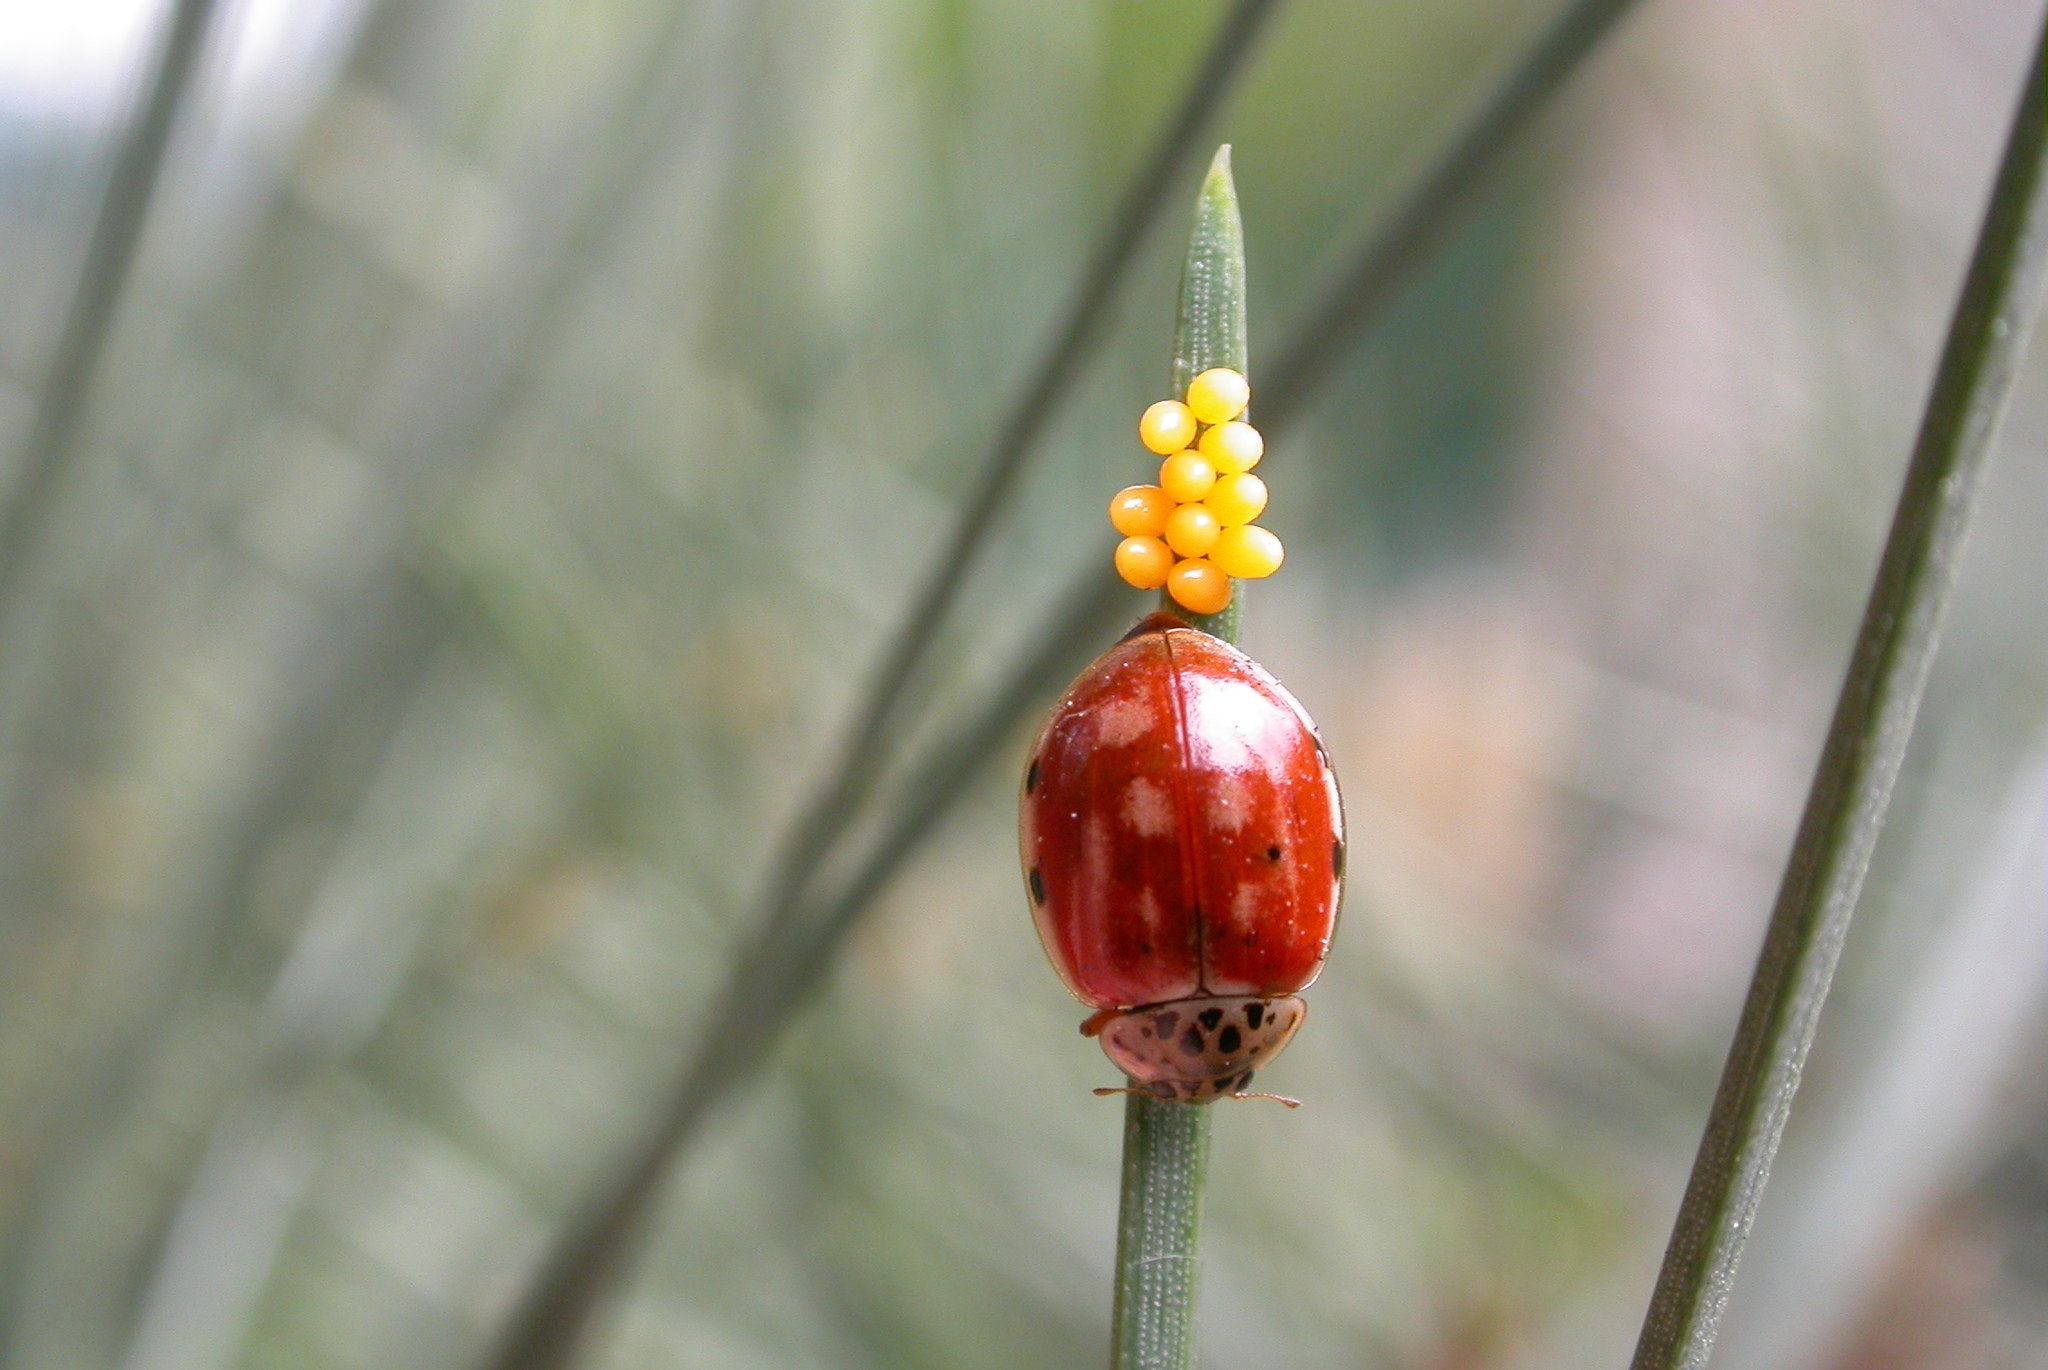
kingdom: Animalia
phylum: Arthropoda
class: Insecta
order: Coleoptera
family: Coccinellidae
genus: Harmonia
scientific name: Harmonia quadripunctata
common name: Cream-streaked ladybird
